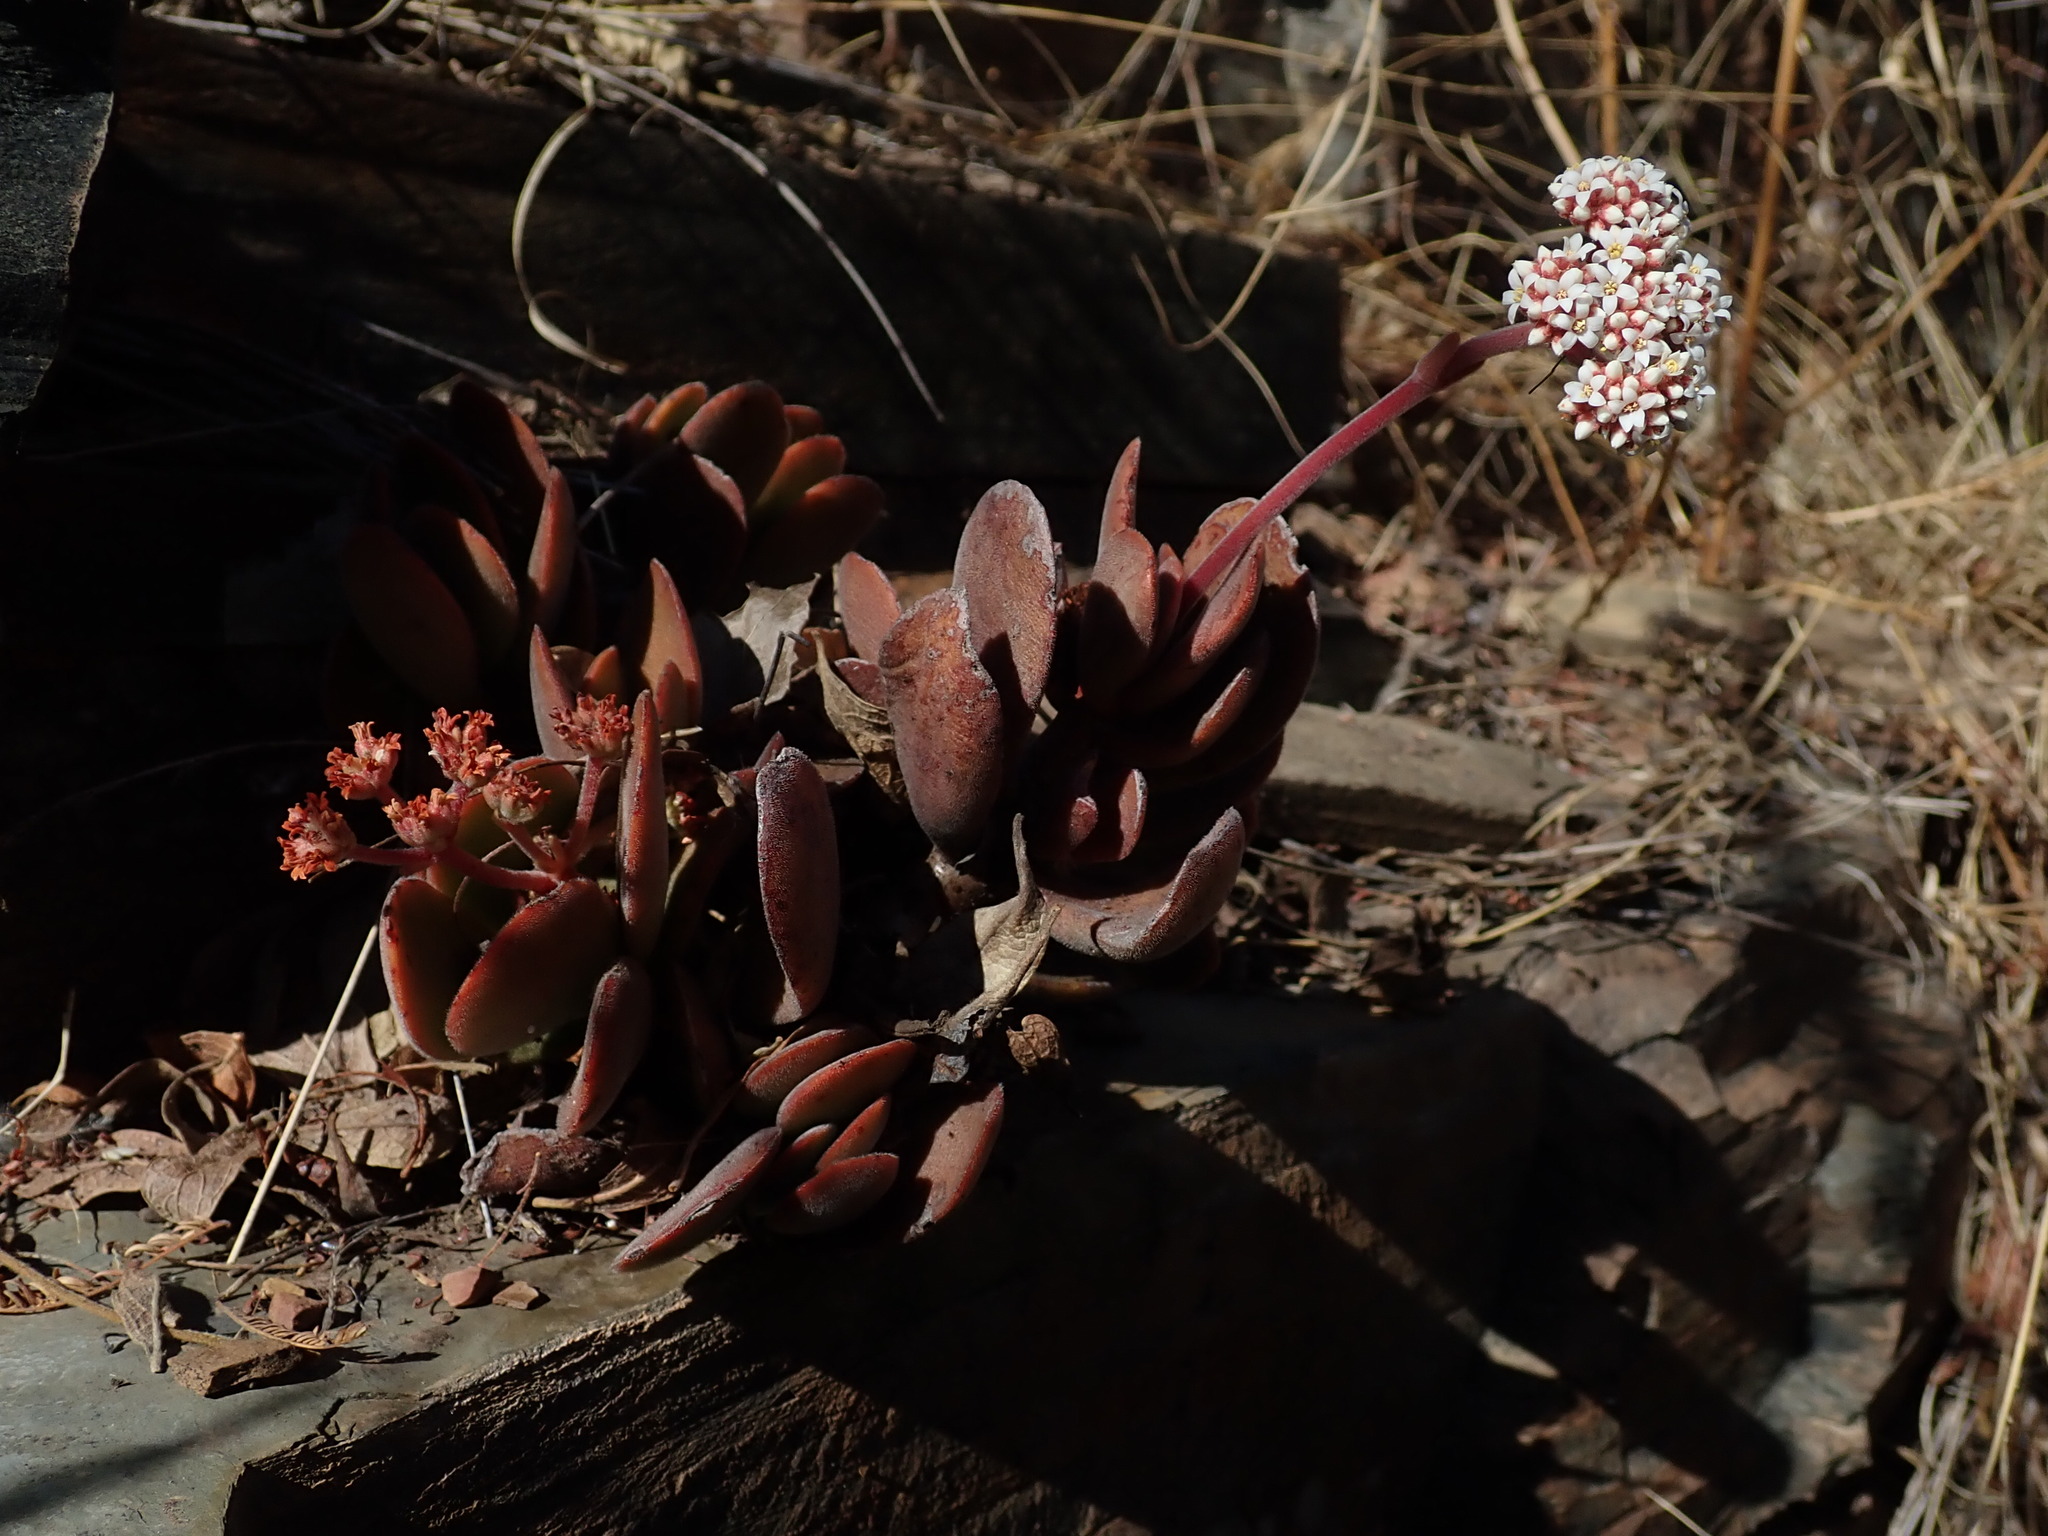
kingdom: Plantae
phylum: Tracheophyta
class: Magnoliopsida
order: Saxifragales
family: Crassulaceae
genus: Crassula
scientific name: Crassula globularioides
